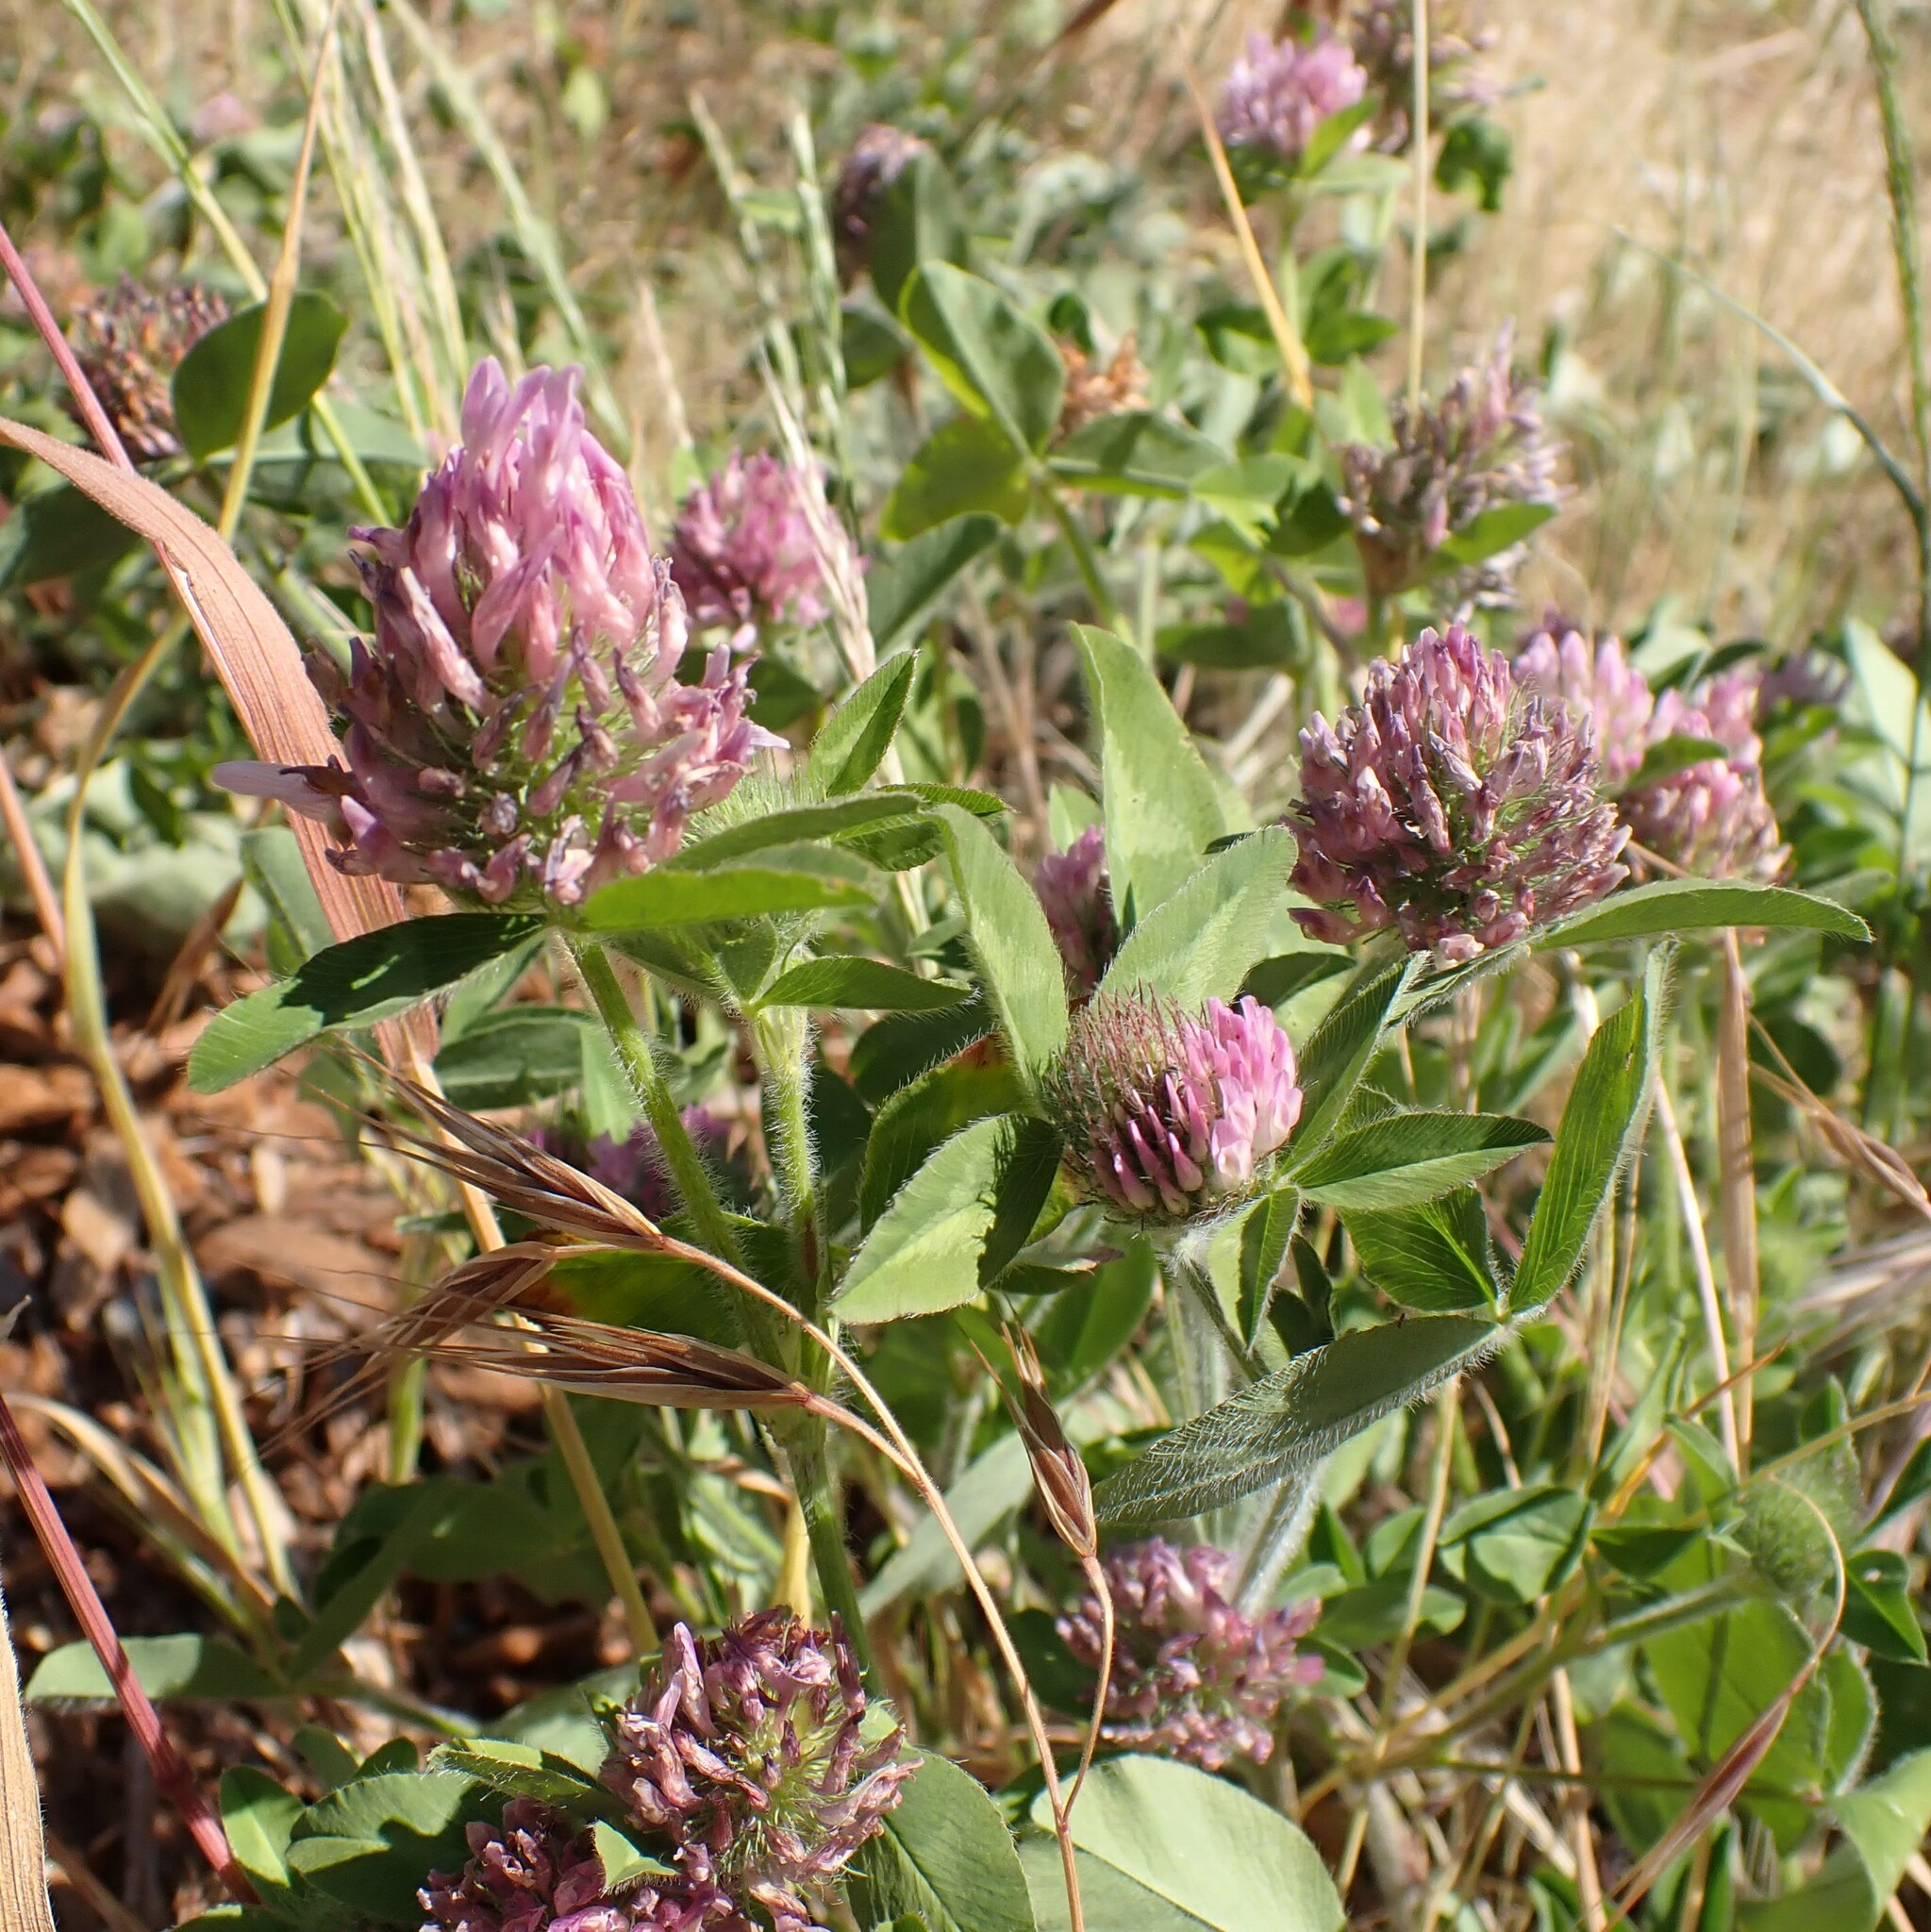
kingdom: Plantae
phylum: Tracheophyta
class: Magnoliopsida
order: Fabales
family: Fabaceae
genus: Trifolium
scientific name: Trifolium pratense
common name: Red clover
